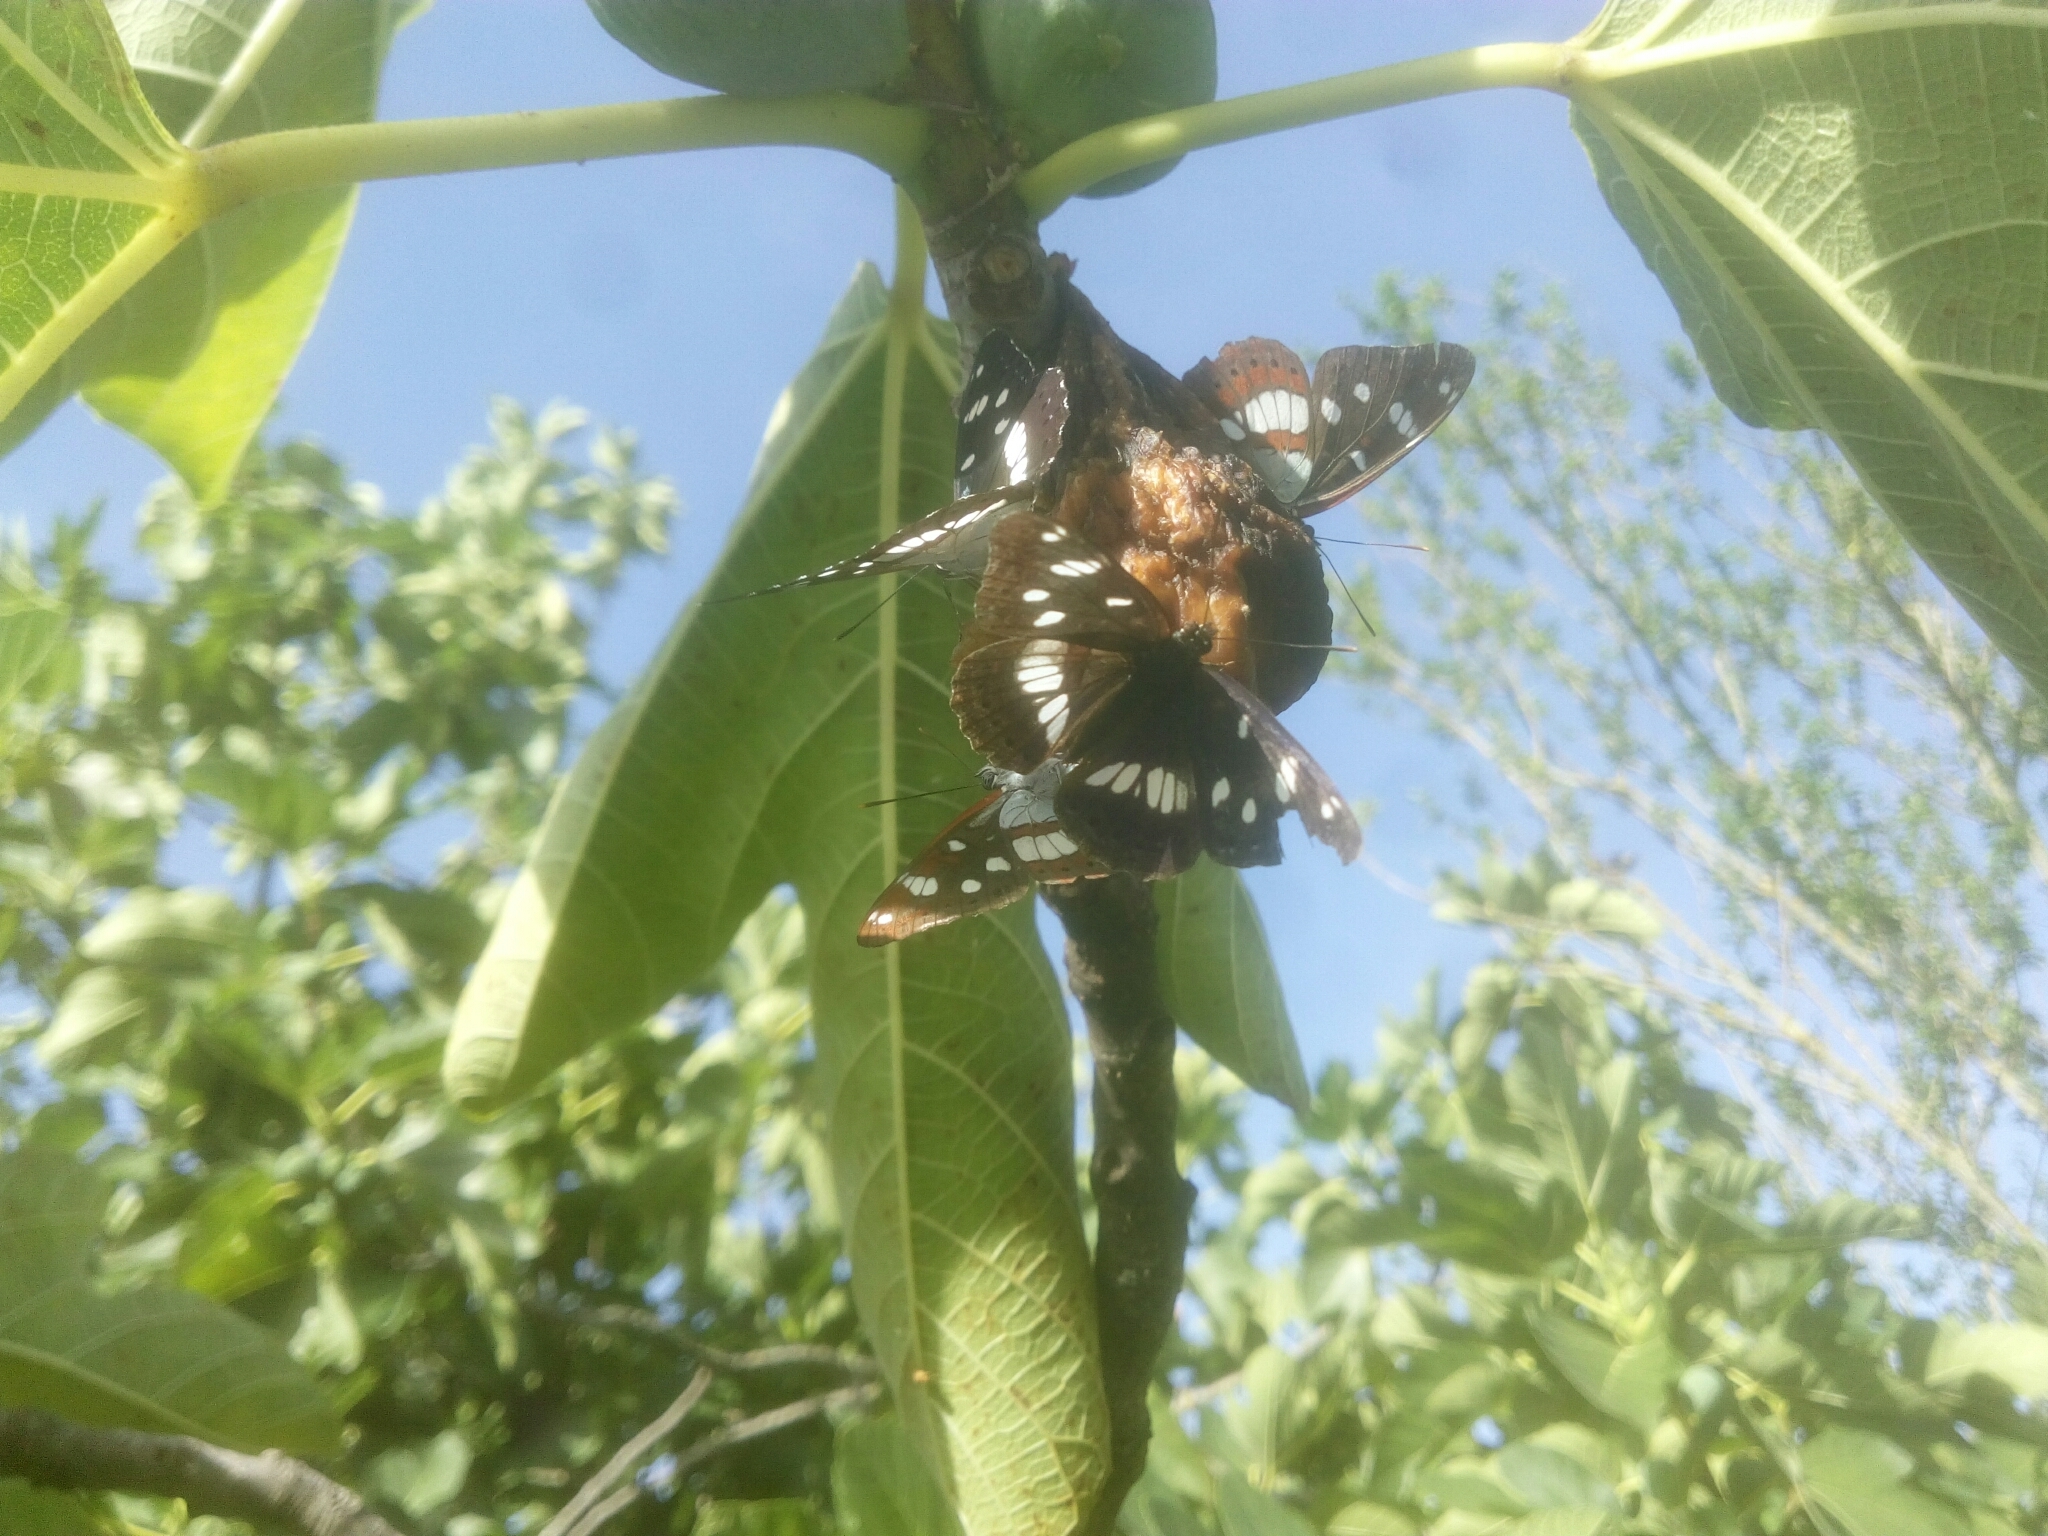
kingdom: Animalia
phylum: Arthropoda
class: Insecta
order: Lepidoptera
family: Nymphalidae
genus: Limenitis
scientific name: Limenitis reducta
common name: Southern white admiral
